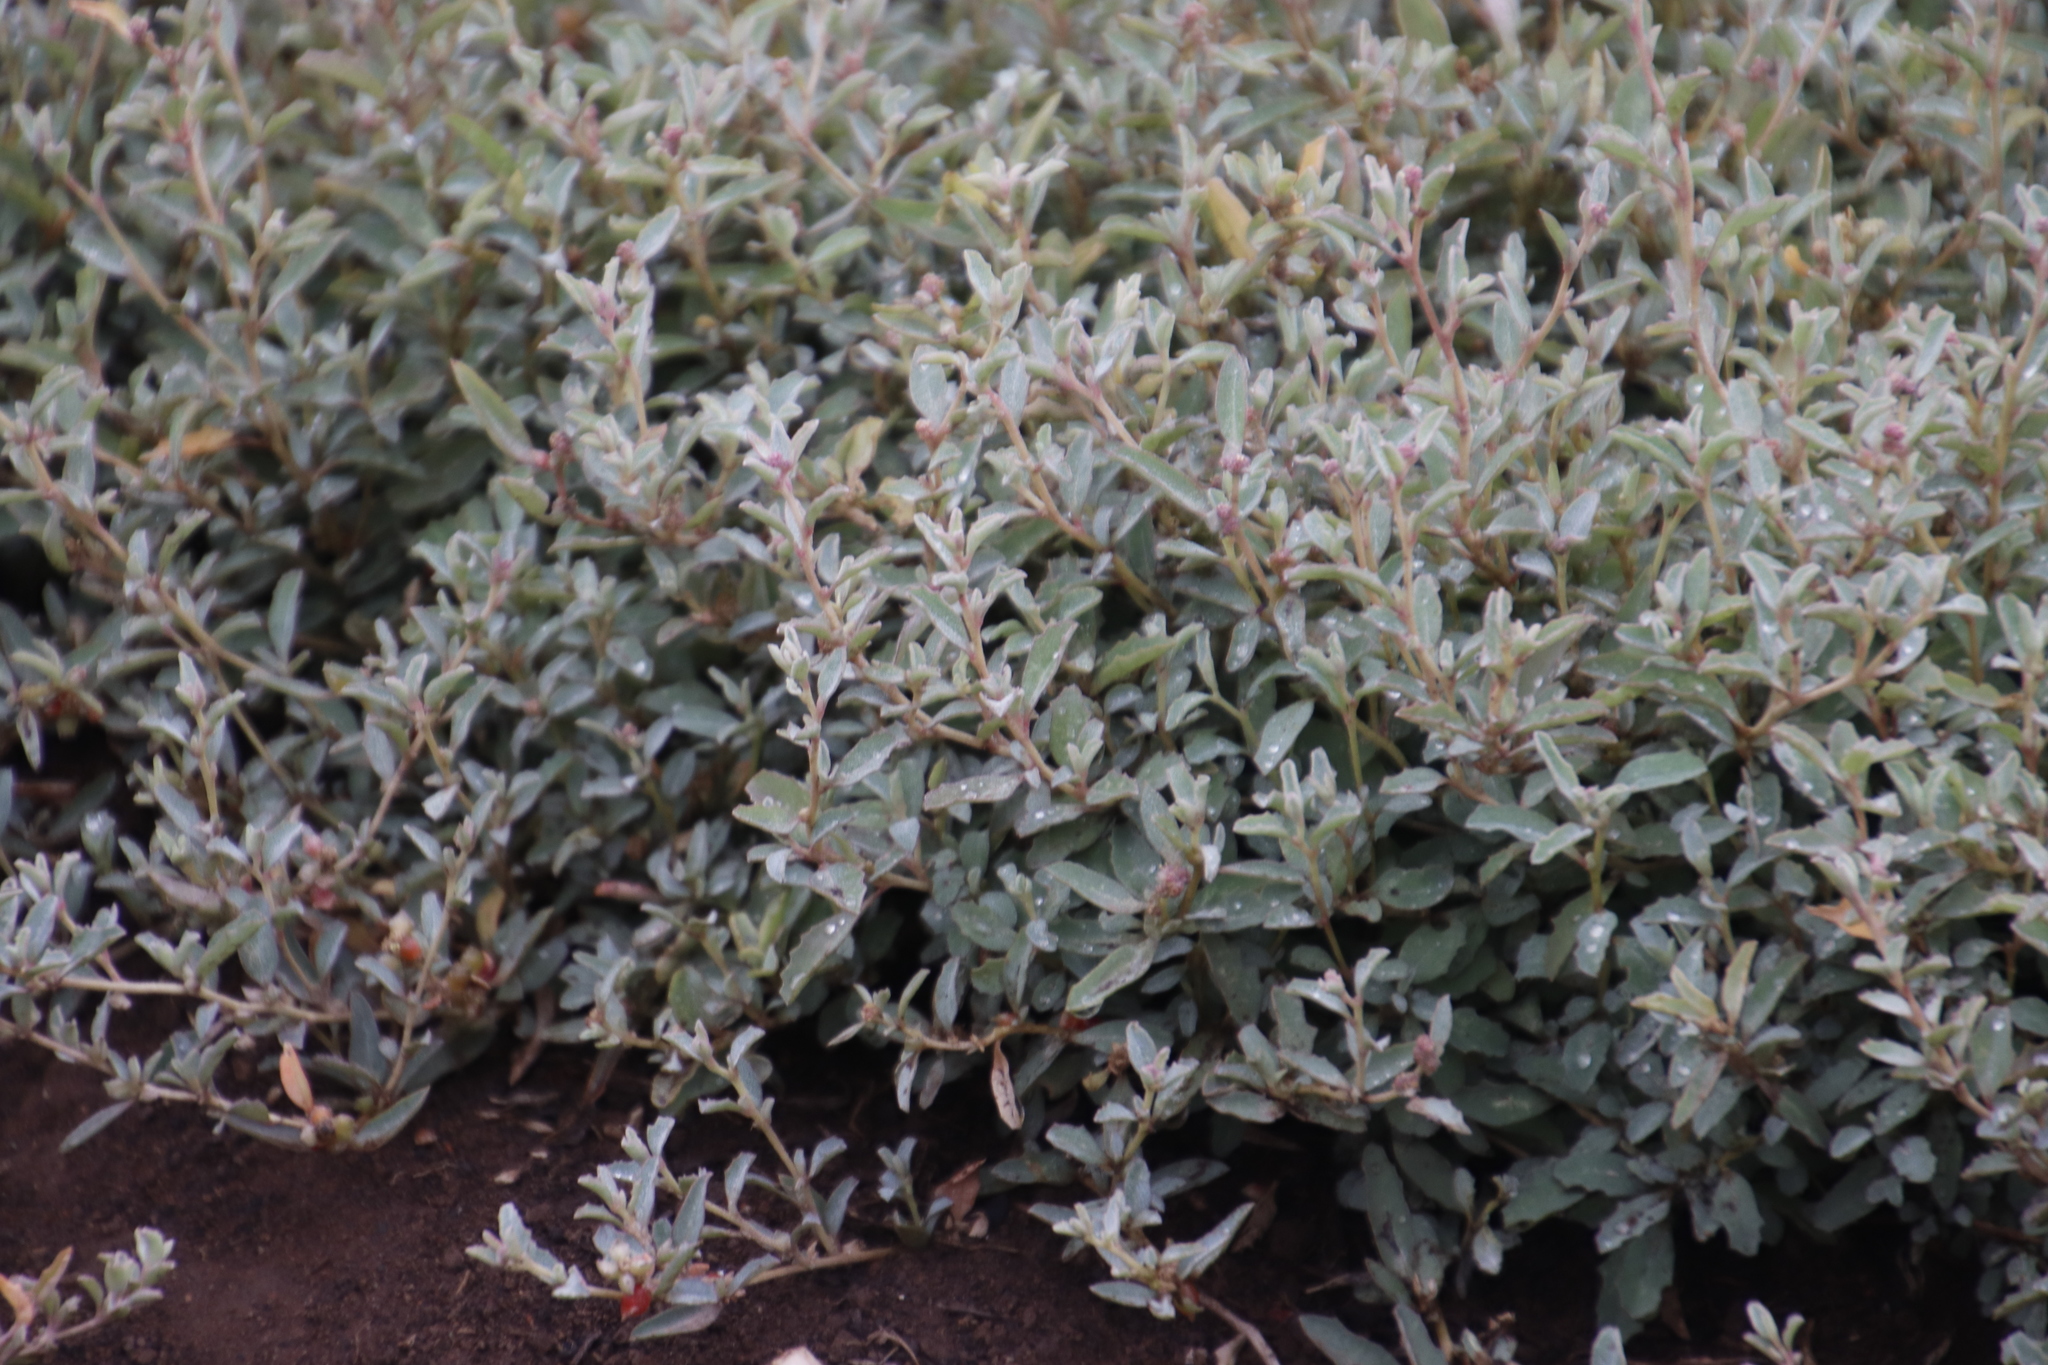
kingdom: Plantae
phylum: Tracheophyta
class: Magnoliopsida
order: Caryophyllales
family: Amaranthaceae
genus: Atriplex
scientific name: Atriplex semibaccata
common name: Australian saltbush
